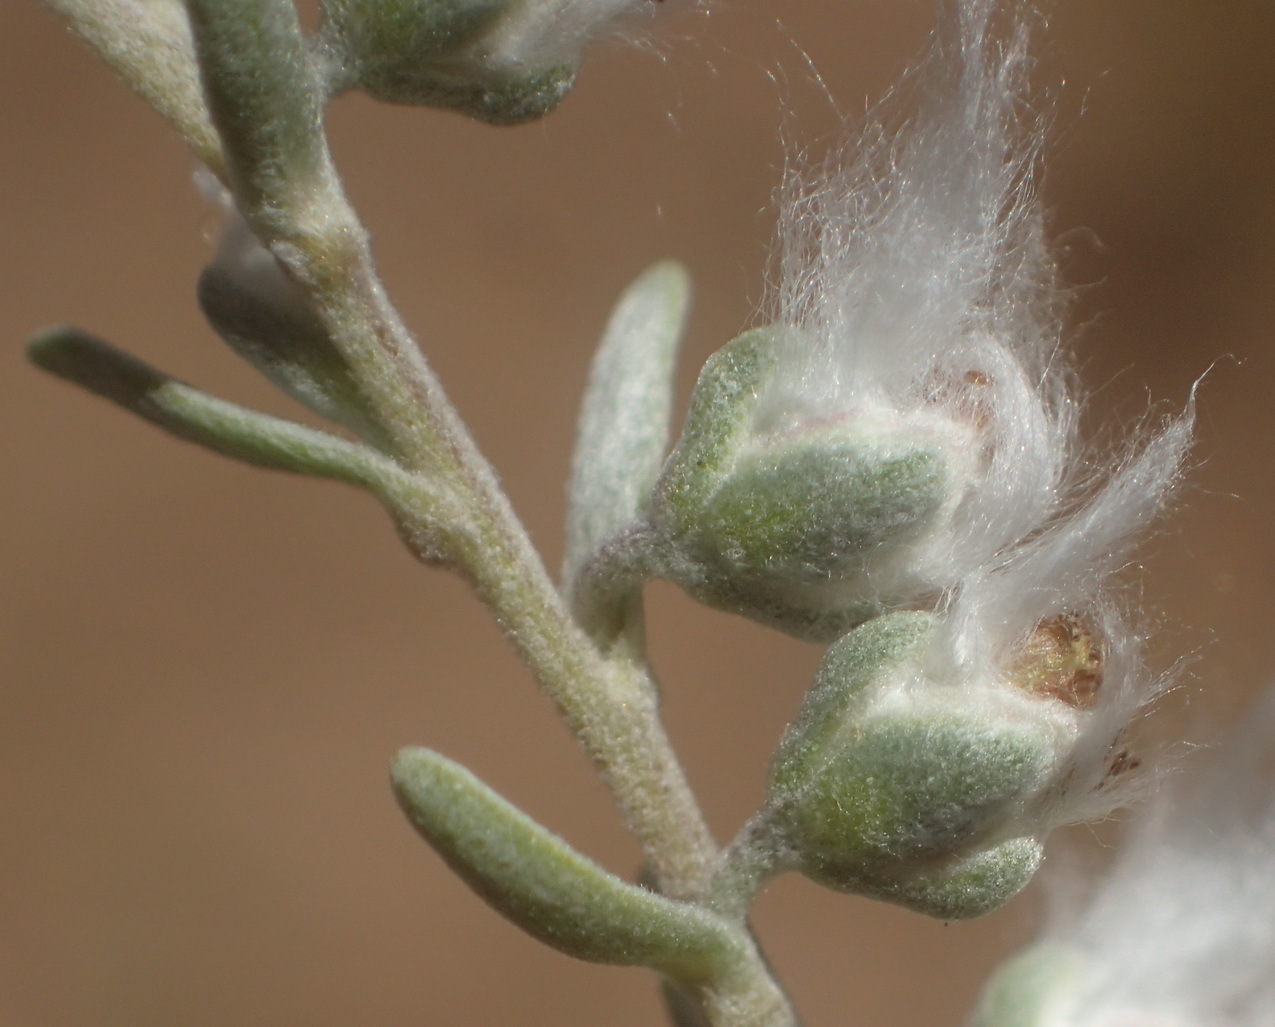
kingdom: Plantae
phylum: Tracheophyta
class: Magnoliopsida
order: Asterales
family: Asteraceae
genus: Eriocephalus
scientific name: Eriocephalus racemosus
